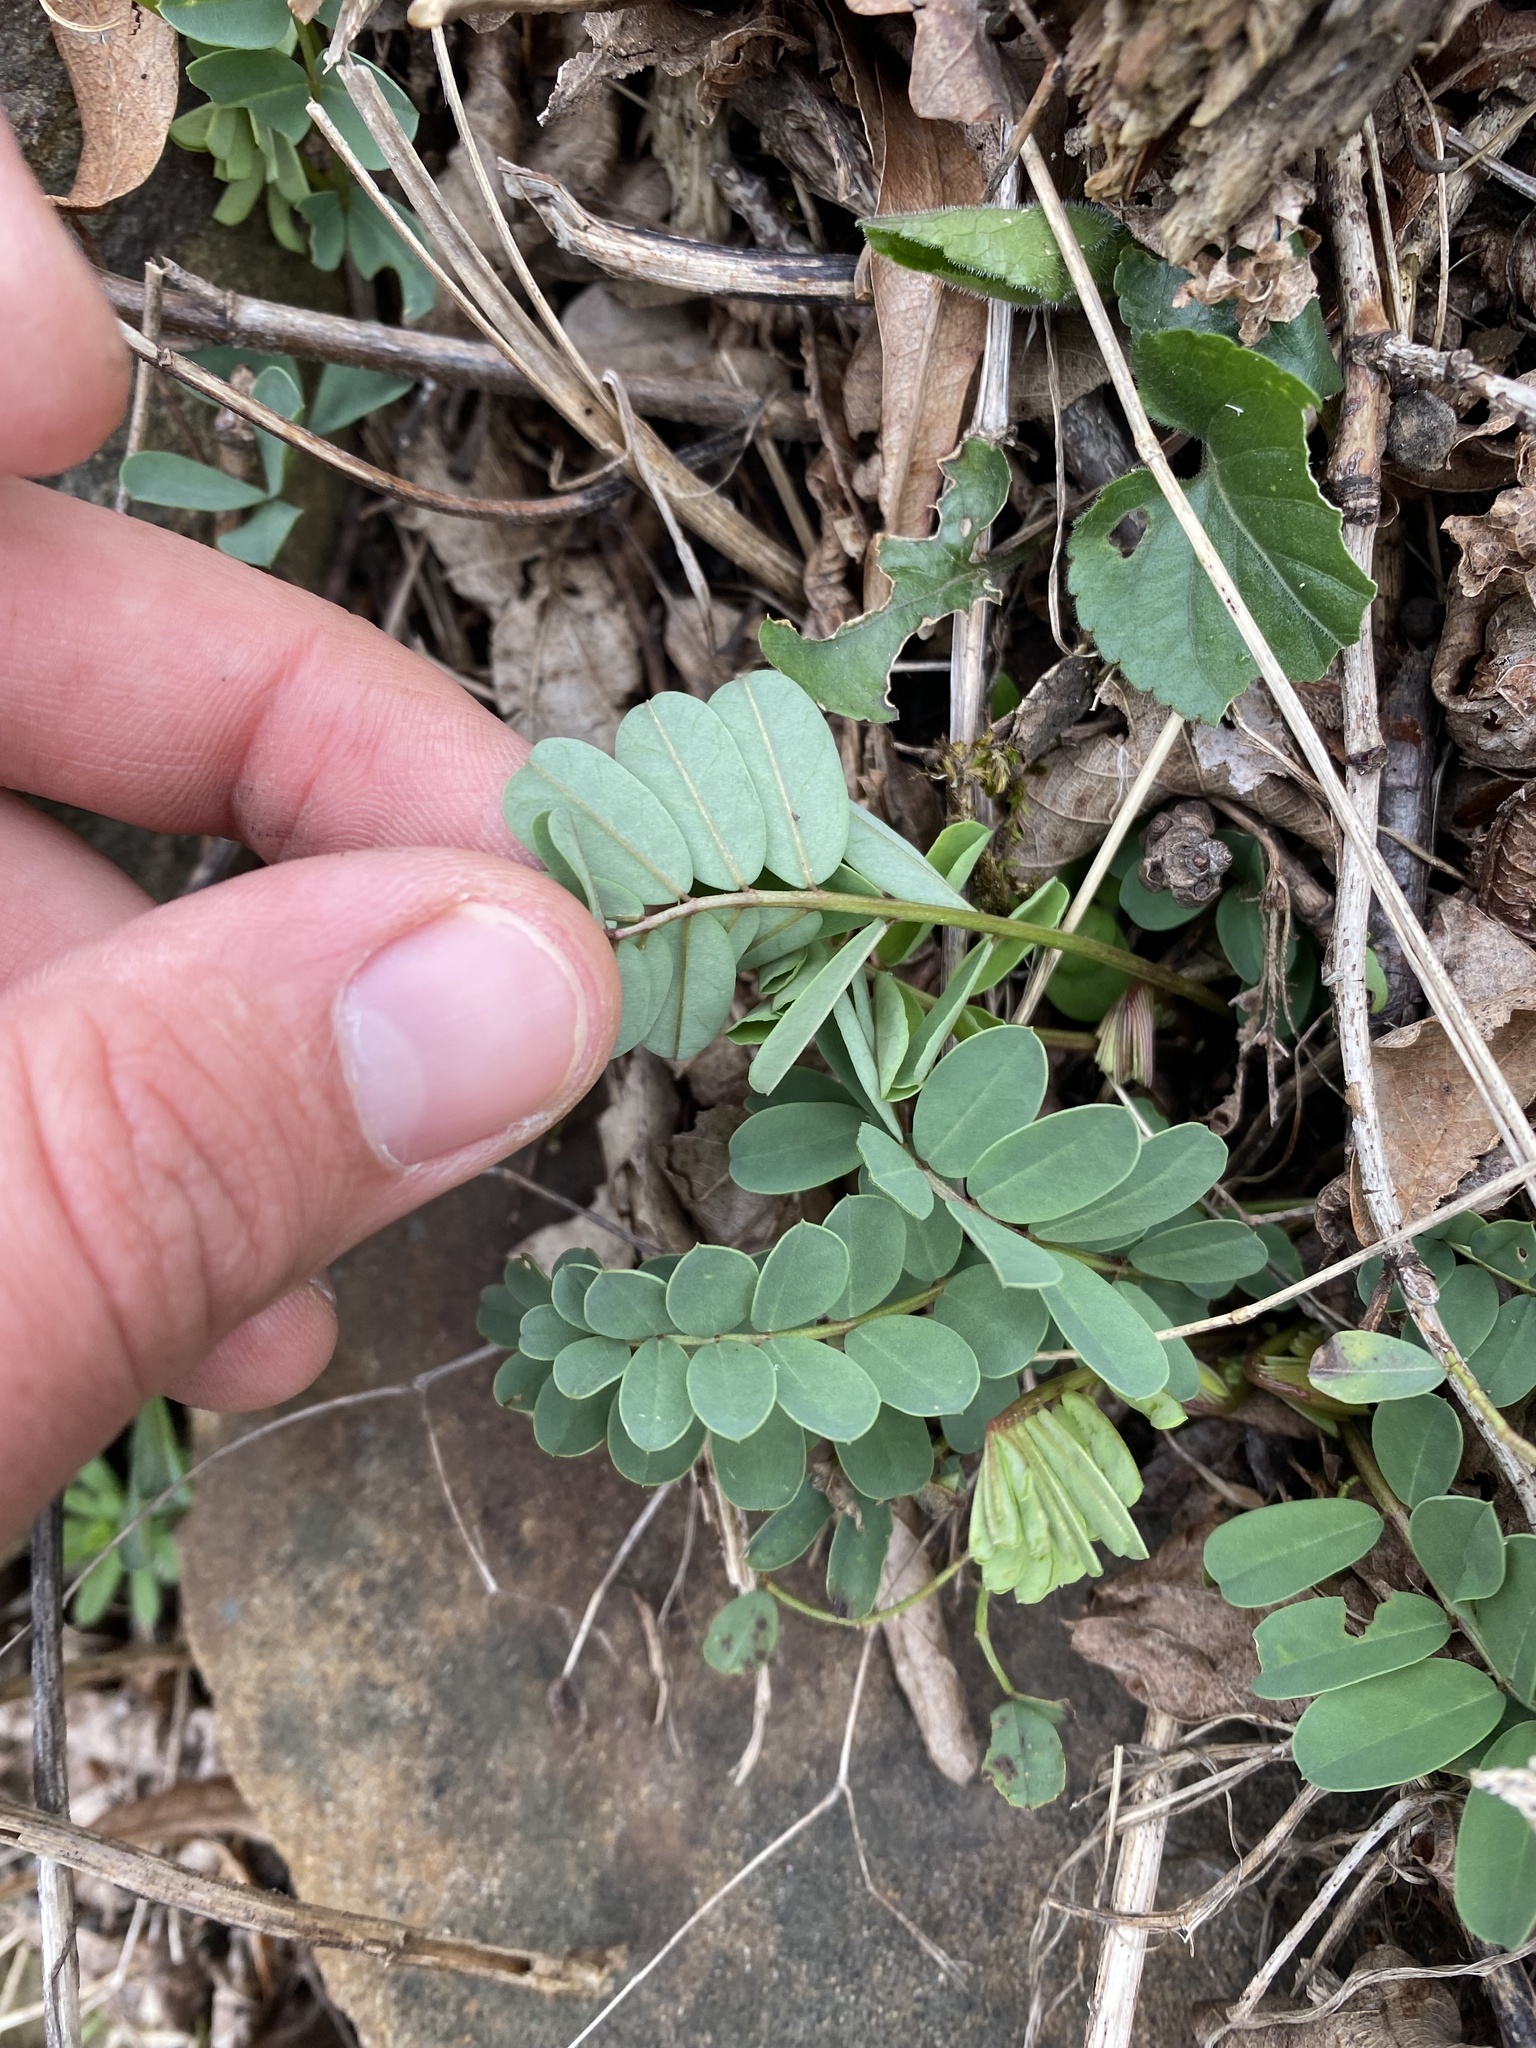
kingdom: Plantae
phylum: Tracheophyta
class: Magnoliopsida
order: Fabales
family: Fabaceae
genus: Coronilla
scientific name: Coronilla varia
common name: Crownvetch
